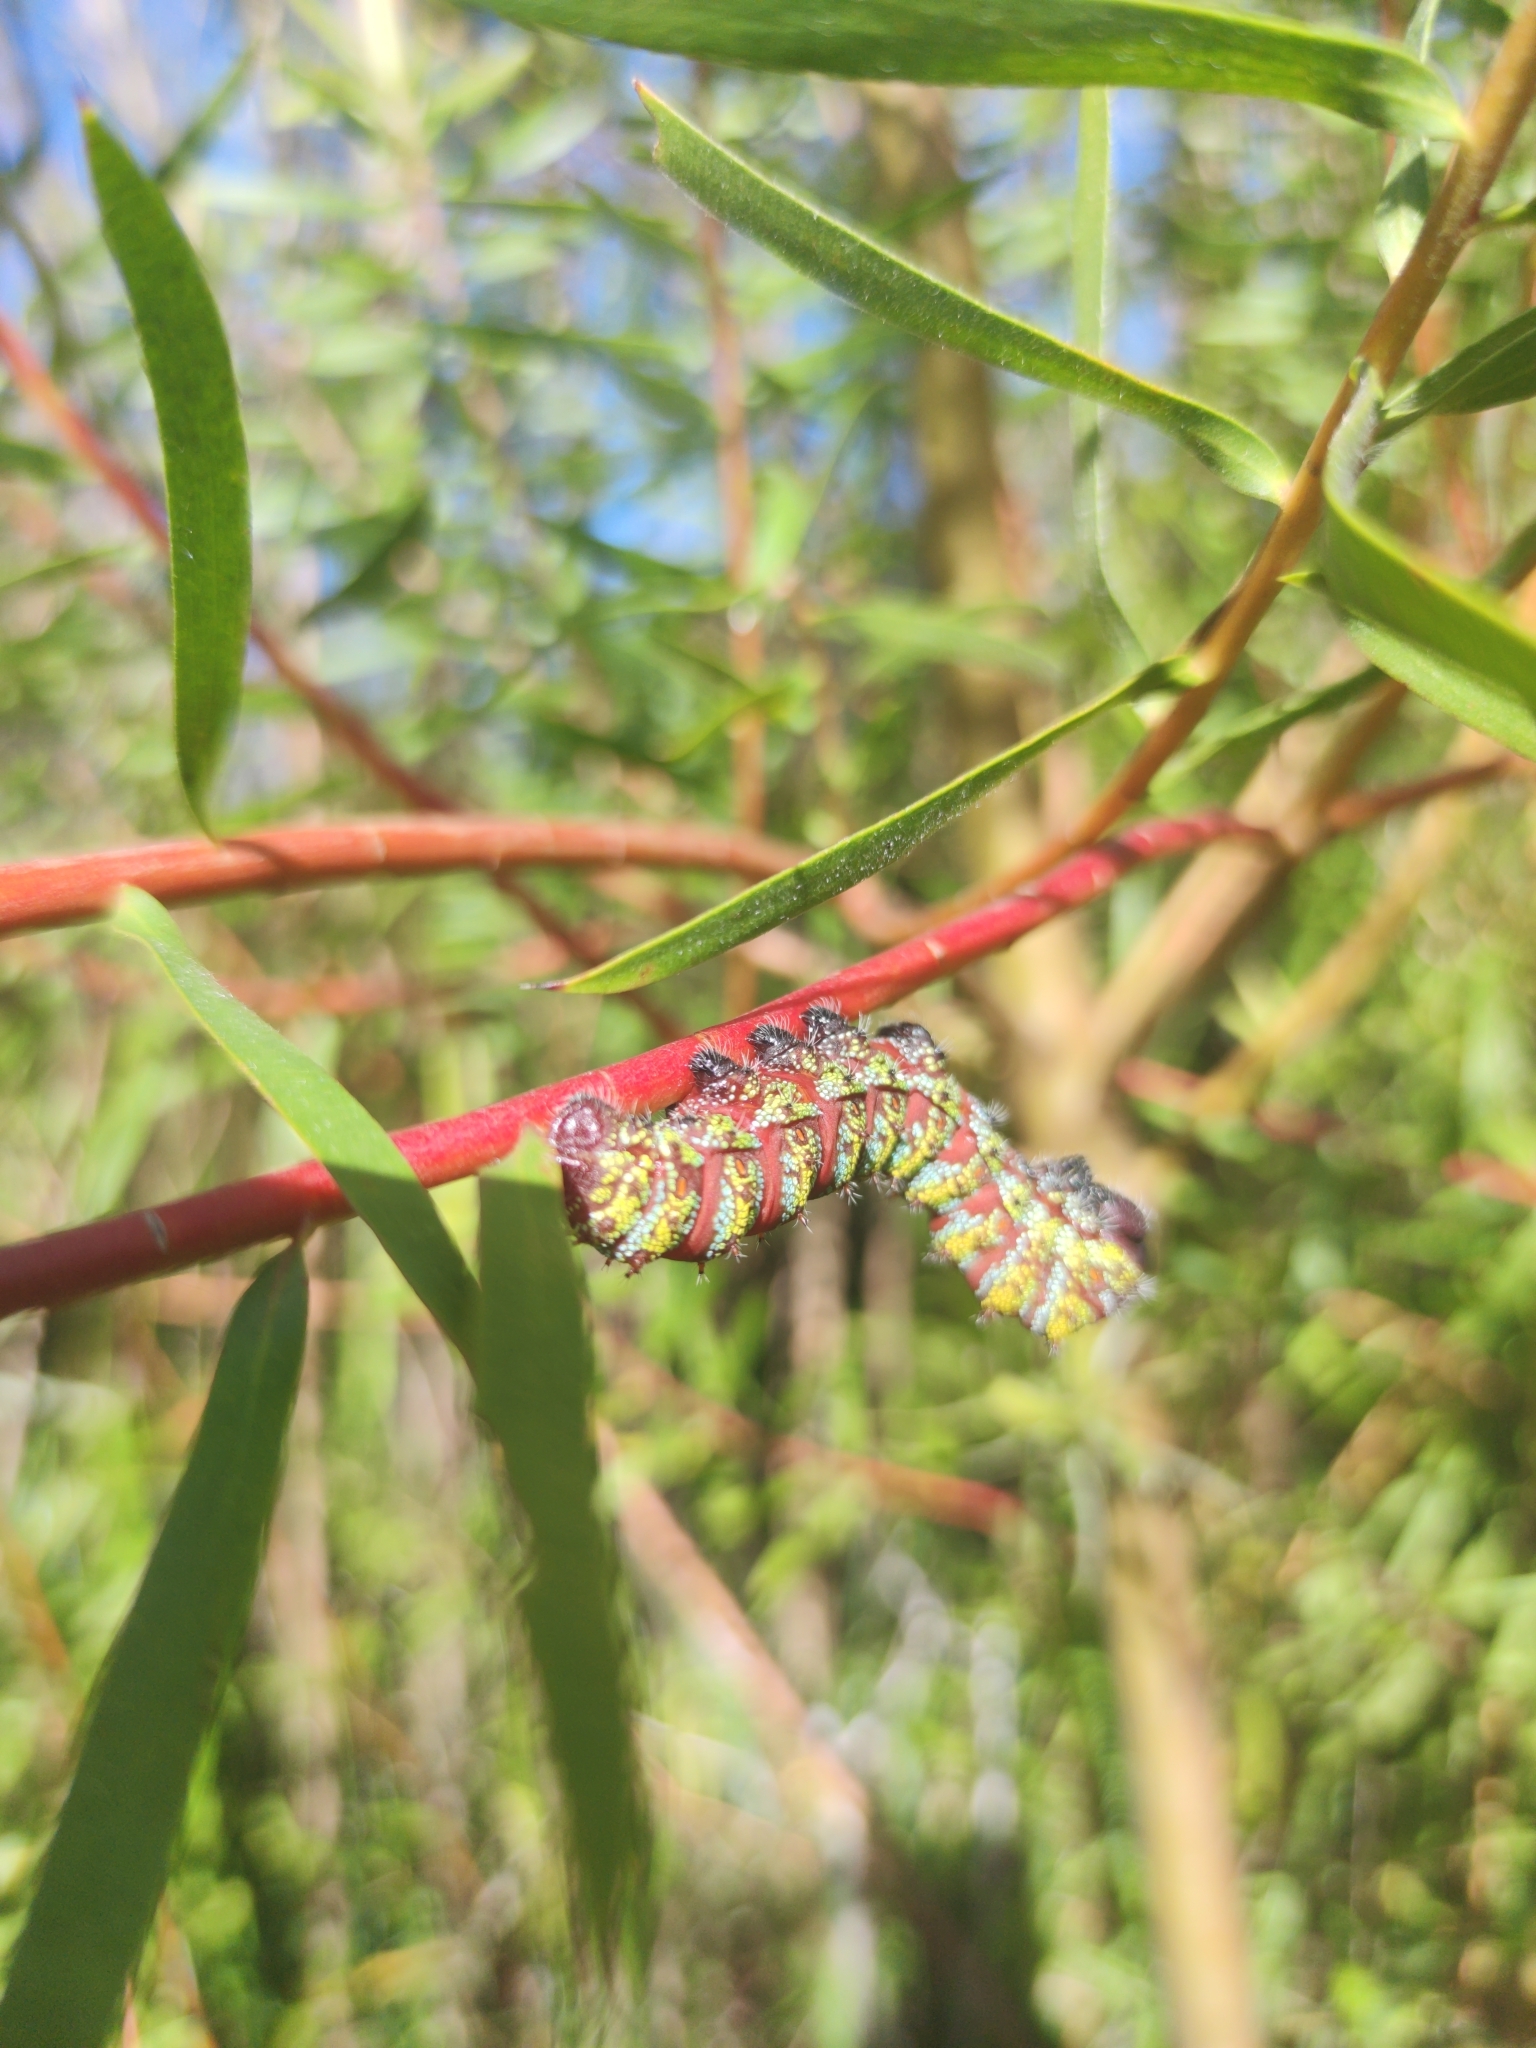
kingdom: Animalia
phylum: Arthropoda
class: Insecta
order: Lepidoptera
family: Saturniidae
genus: Nudaurelia
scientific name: Nudaurelia cytherea
